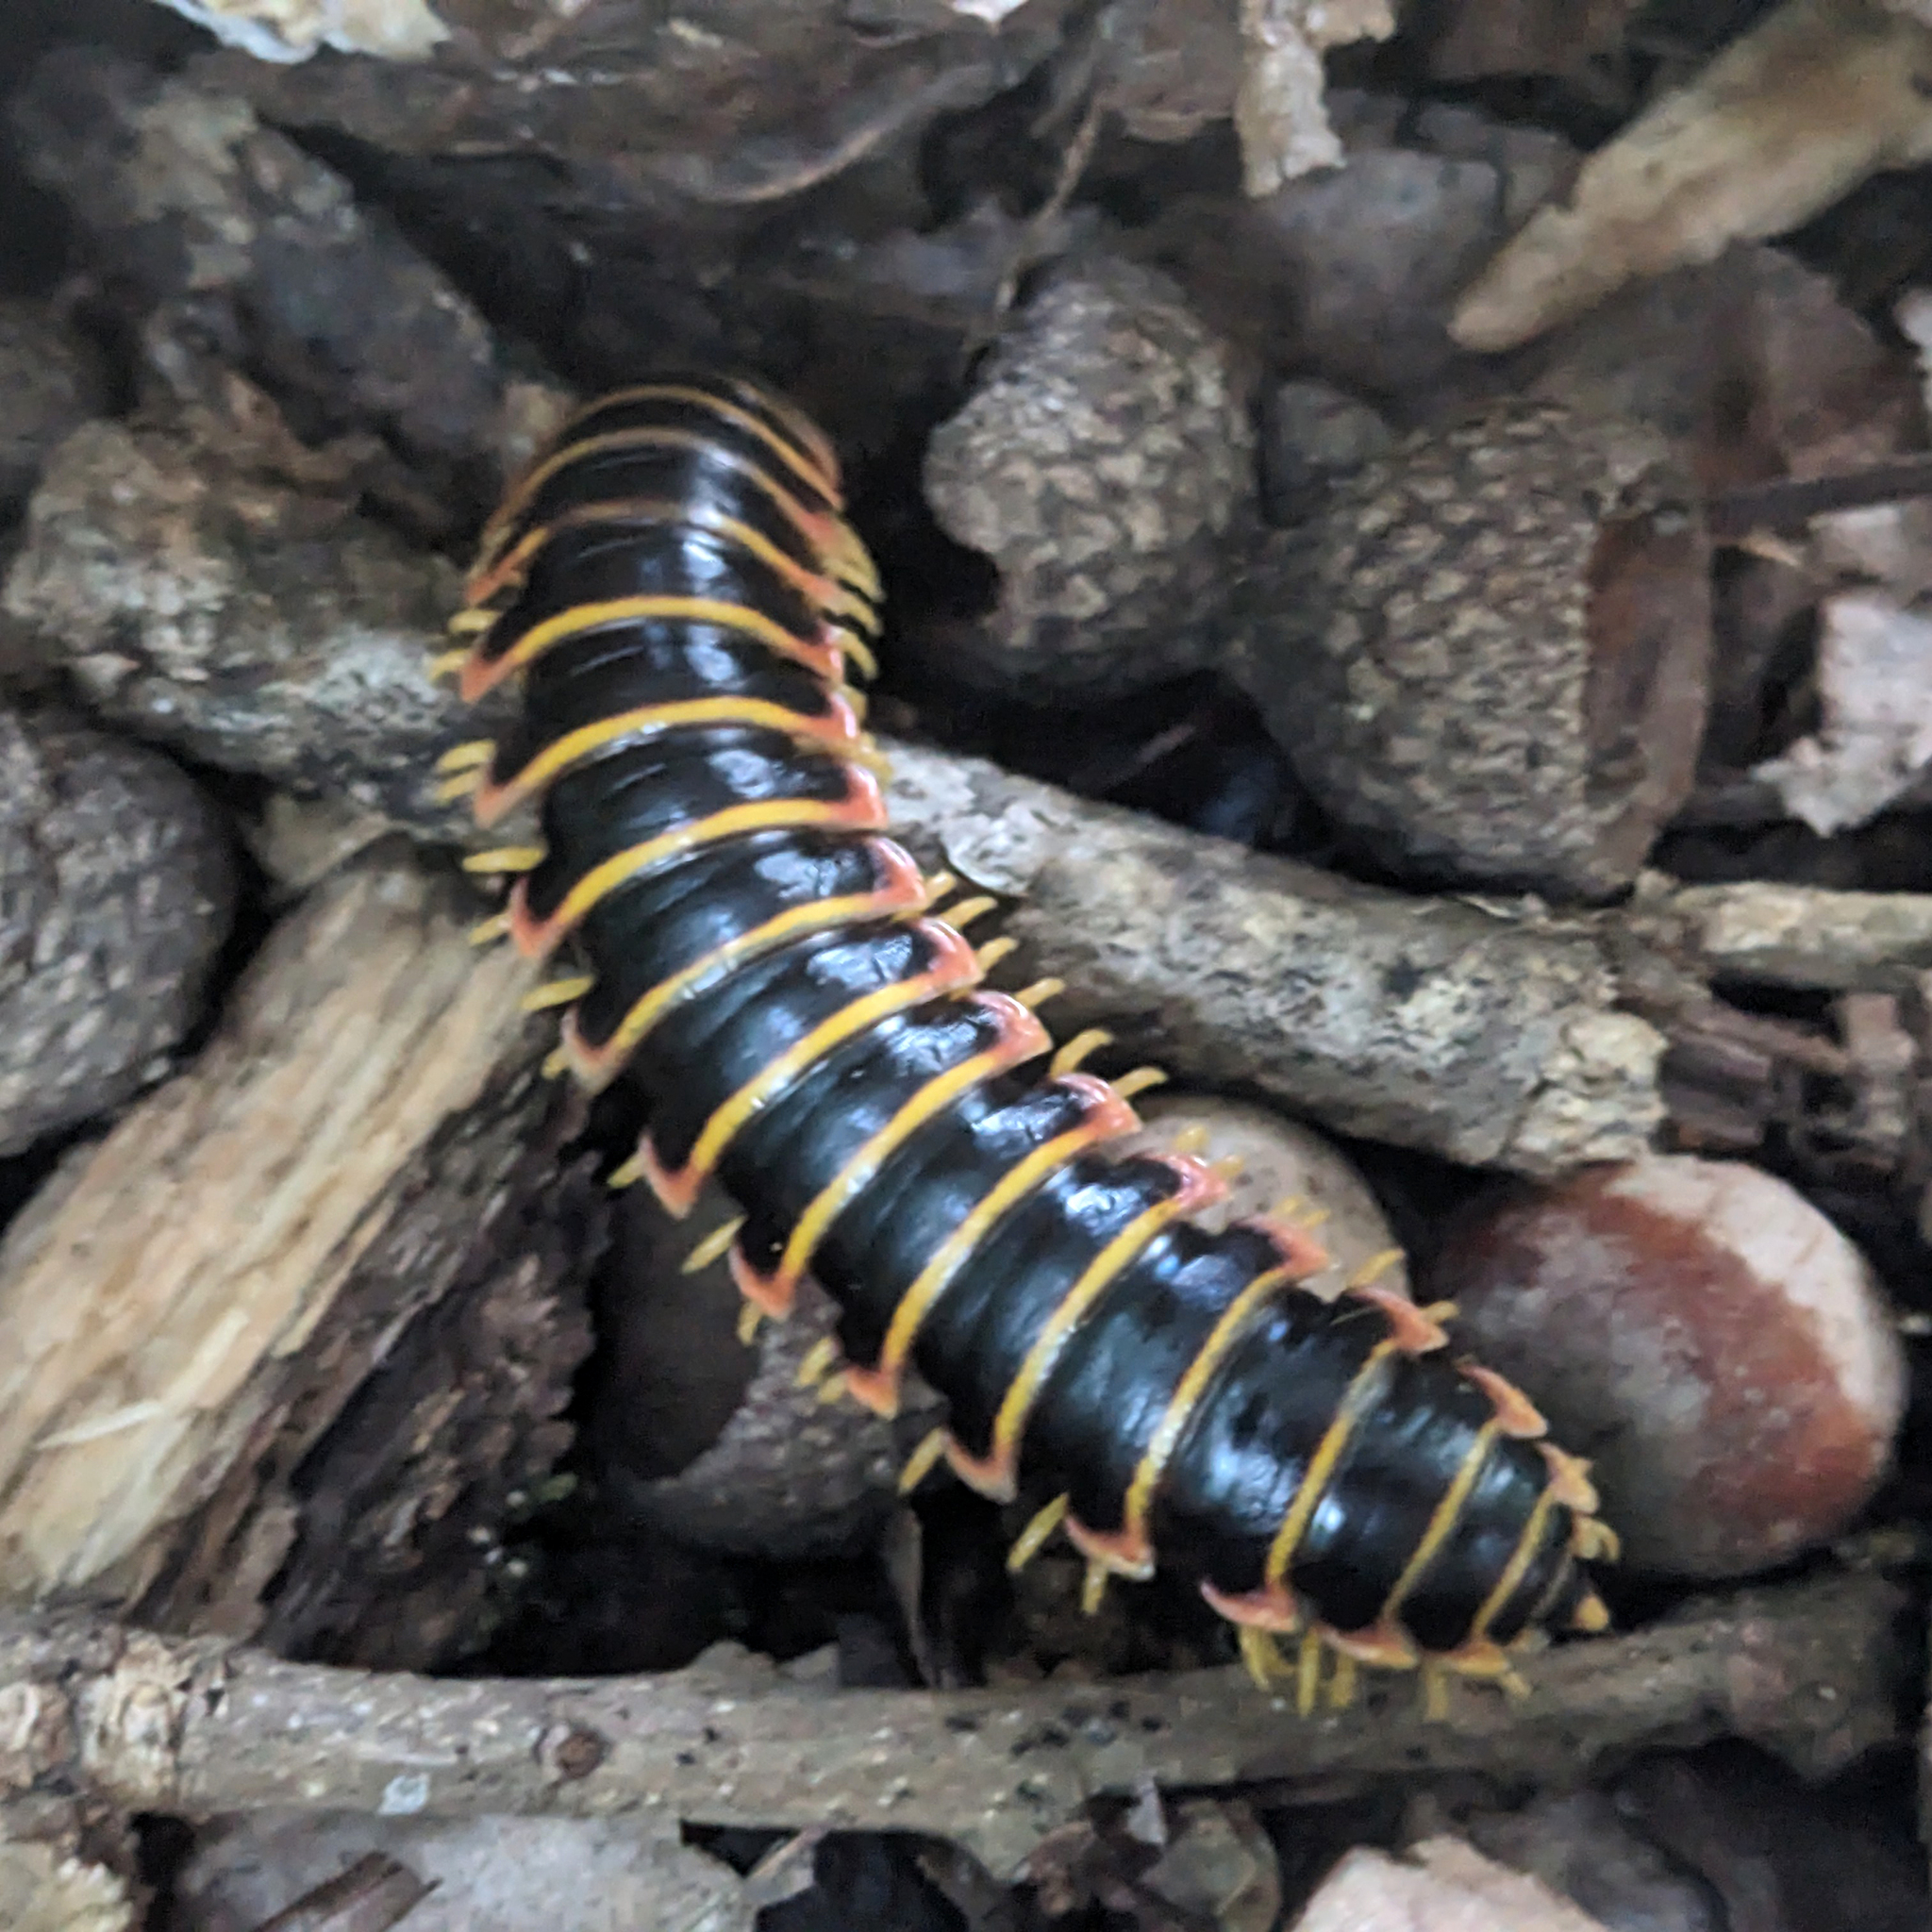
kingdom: Animalia
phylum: Arthropoda
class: Diplopoda
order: Polydesmida
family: Xystodesmidae
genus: Apheloria
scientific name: Apheloria virginiensis
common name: Black-and-gold flat millipede
